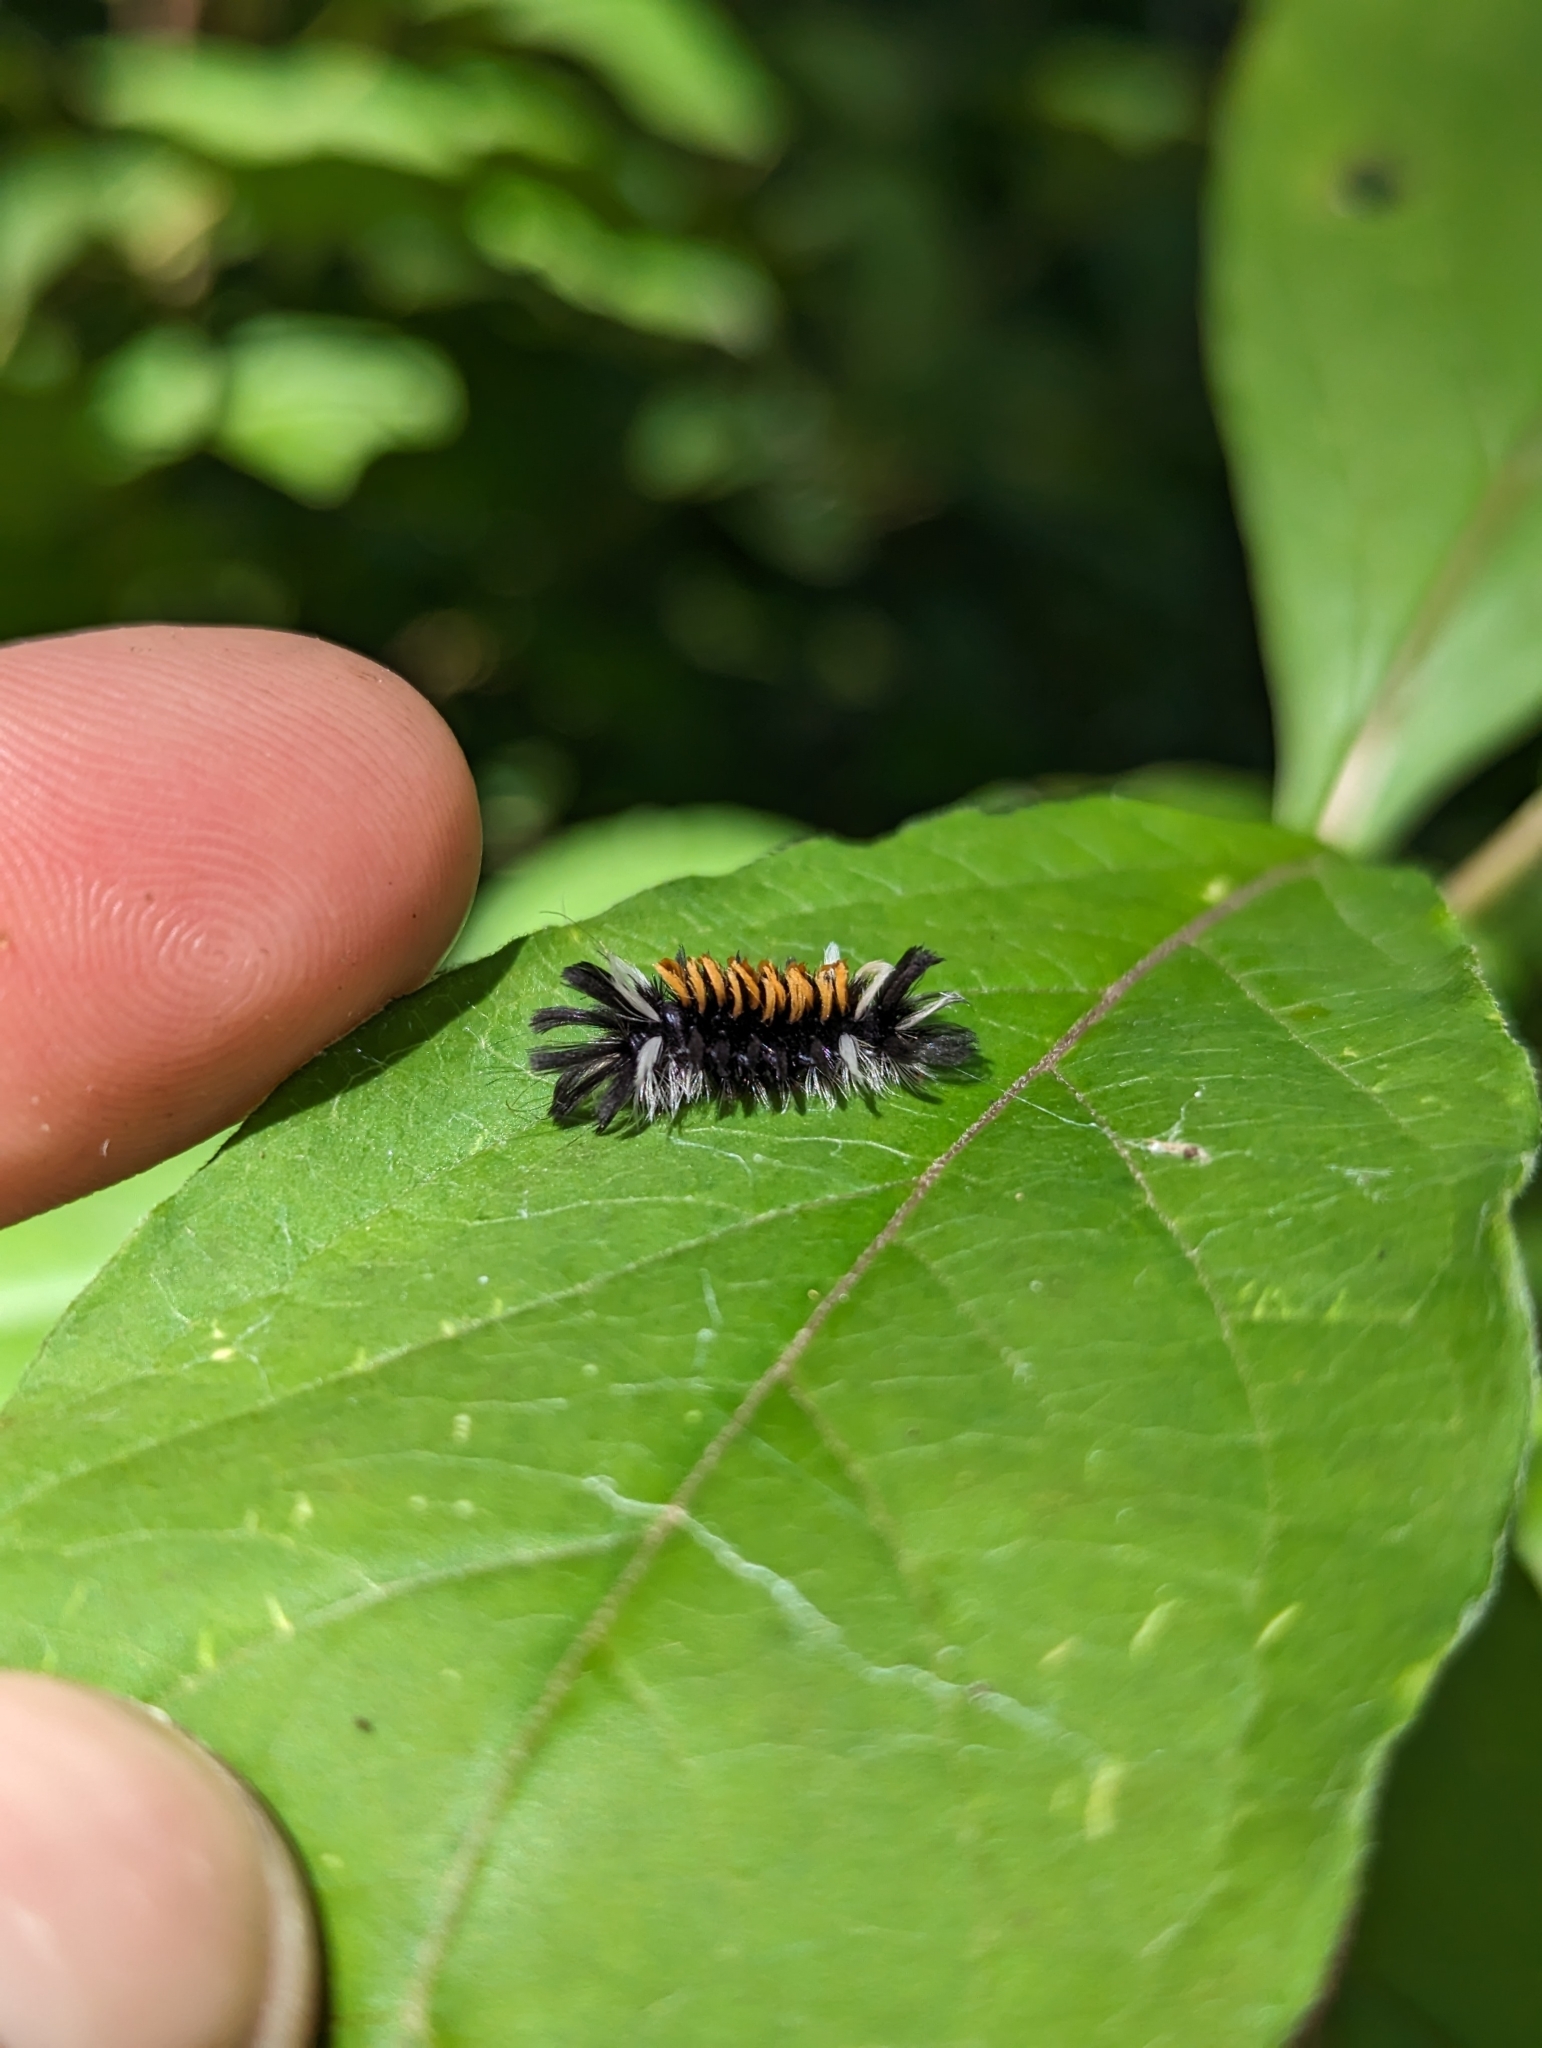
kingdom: Animalia
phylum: Arthropoda
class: Insecta
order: Lepidoptera
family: Erebidae
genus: Euchaetes
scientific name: Euchaetes egle
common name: Milkweed tussock moth
